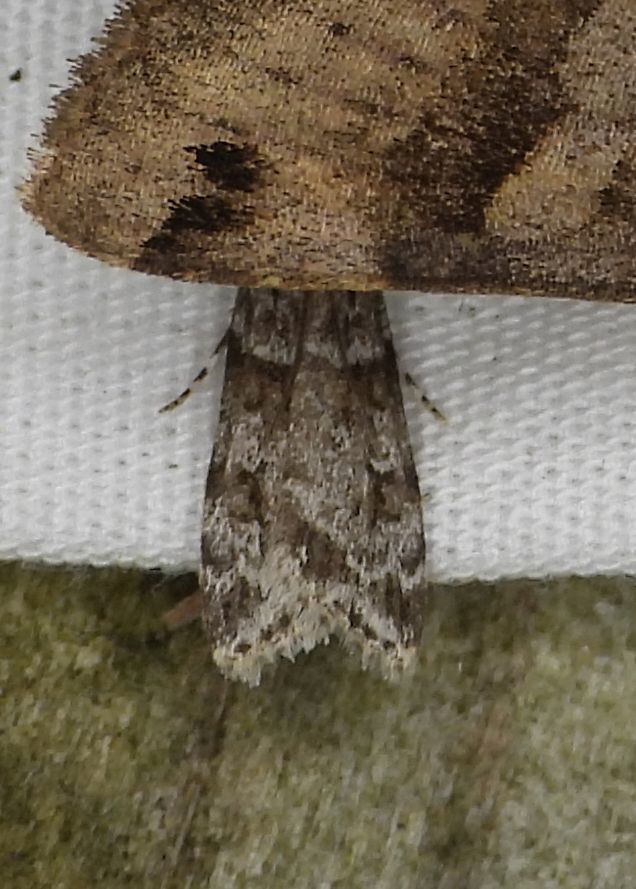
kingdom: Animalia
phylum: Arthropoda
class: Insecta
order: Lepidoptera
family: Crambidae
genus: Scoparia
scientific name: Scoparia biplagialis
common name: Double-striped scoparia moth
